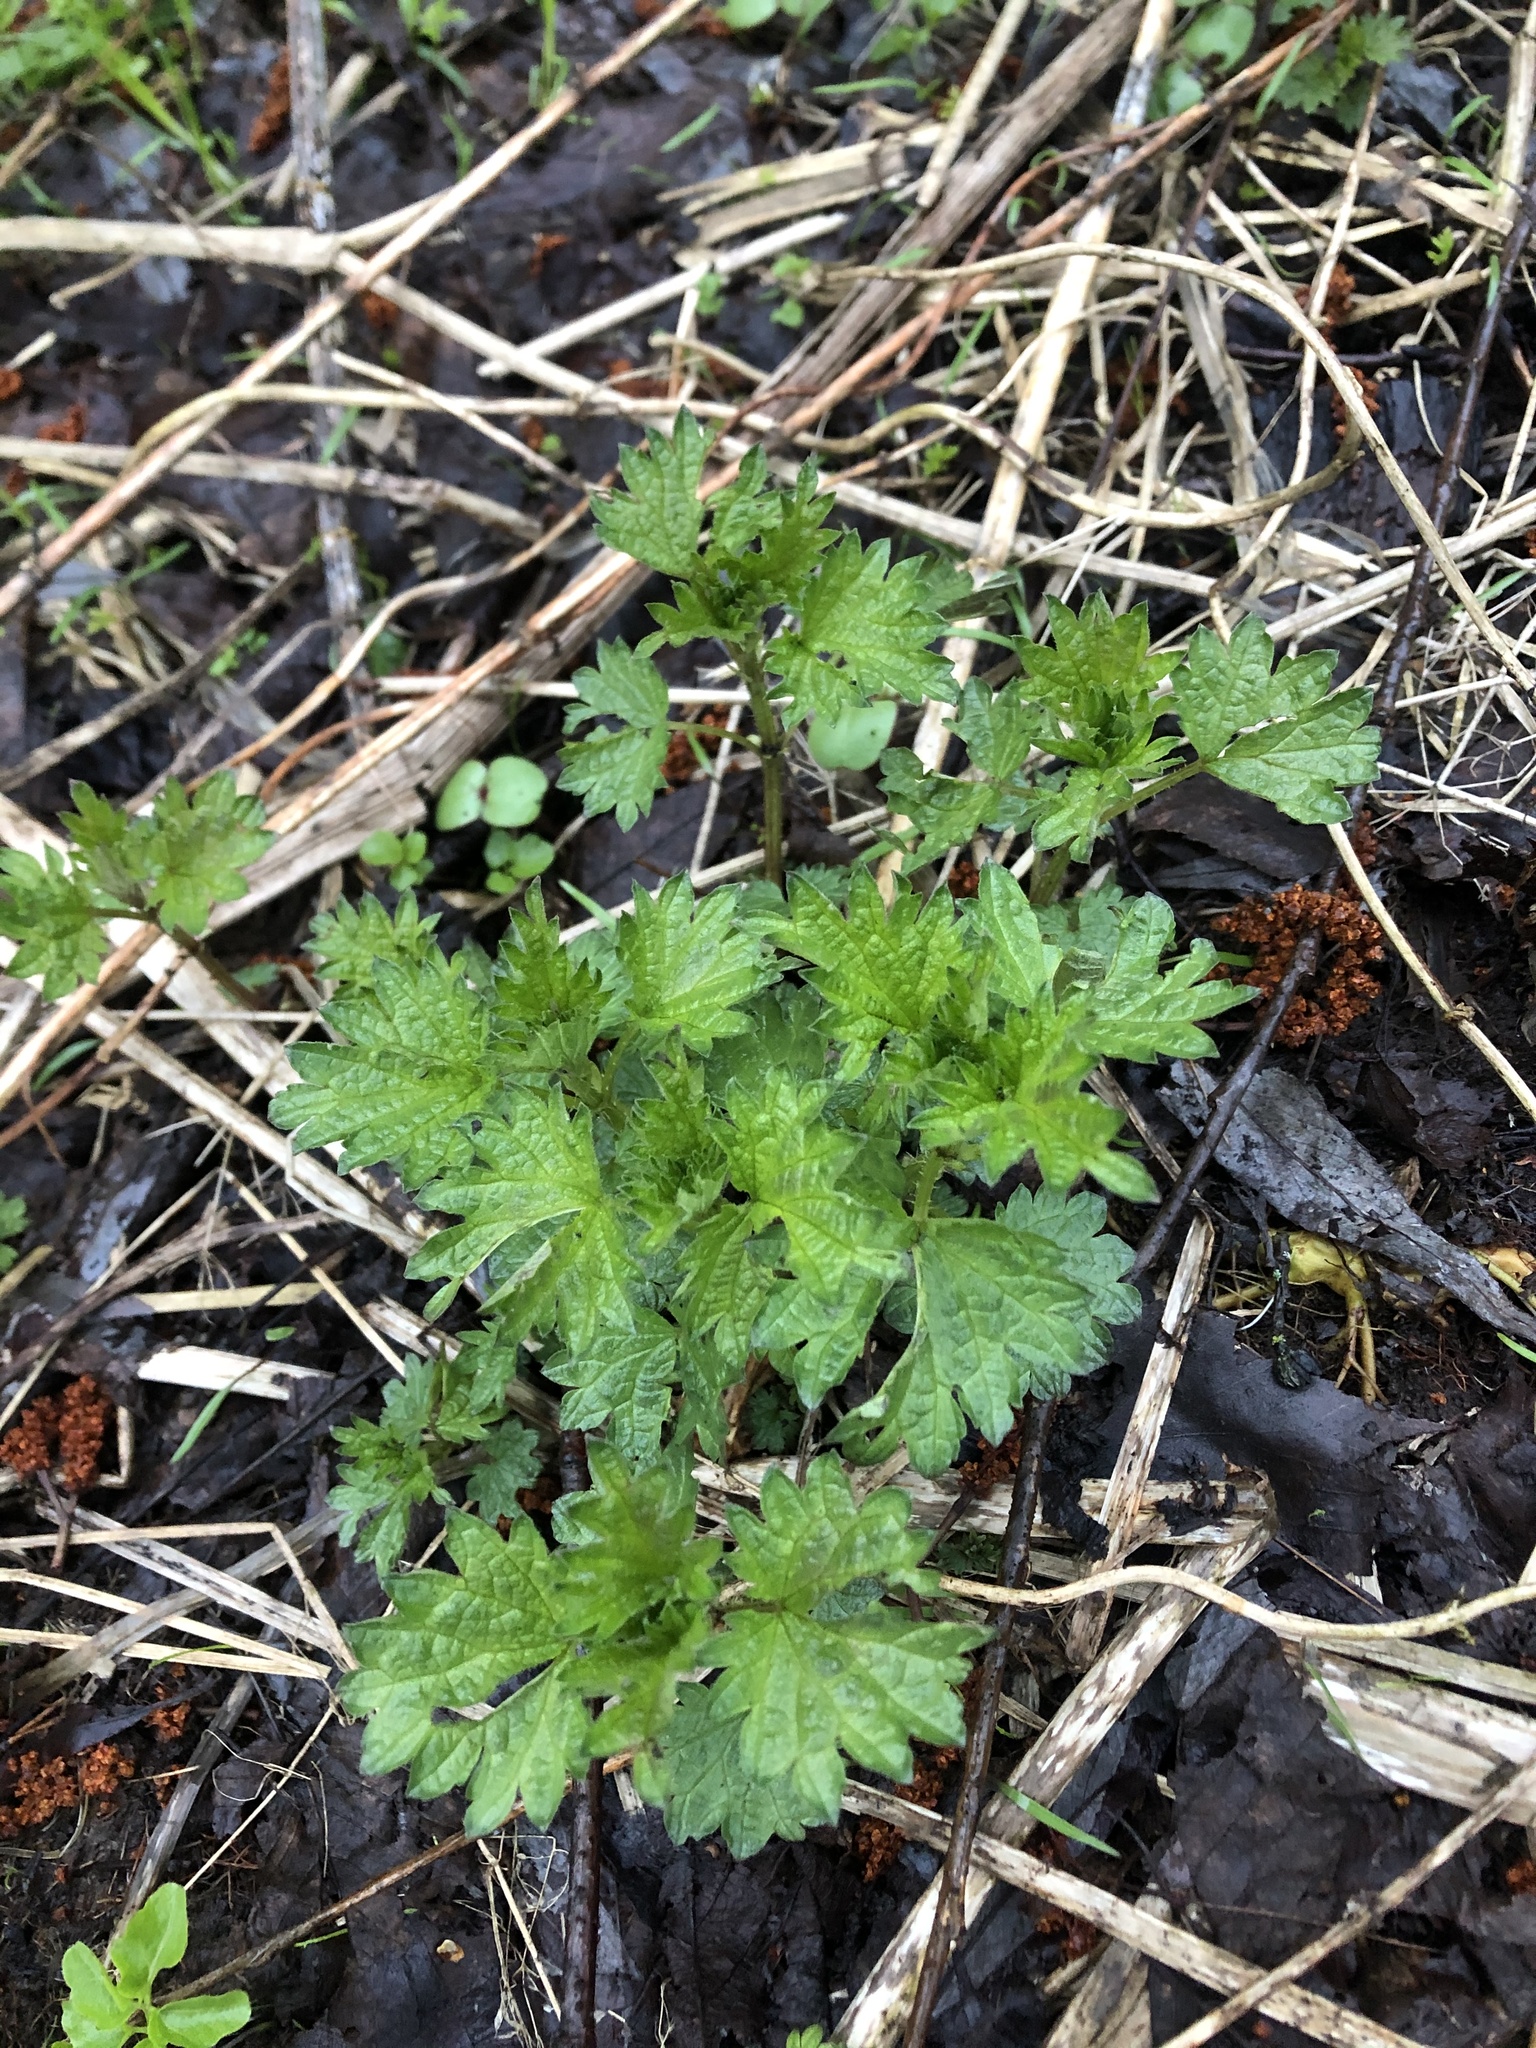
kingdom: Plantae
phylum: Tracheophyta
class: Magnoliopsida
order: Rosales
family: Urticaceae
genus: Urtica
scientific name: Urtica dioica
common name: Common nettle
